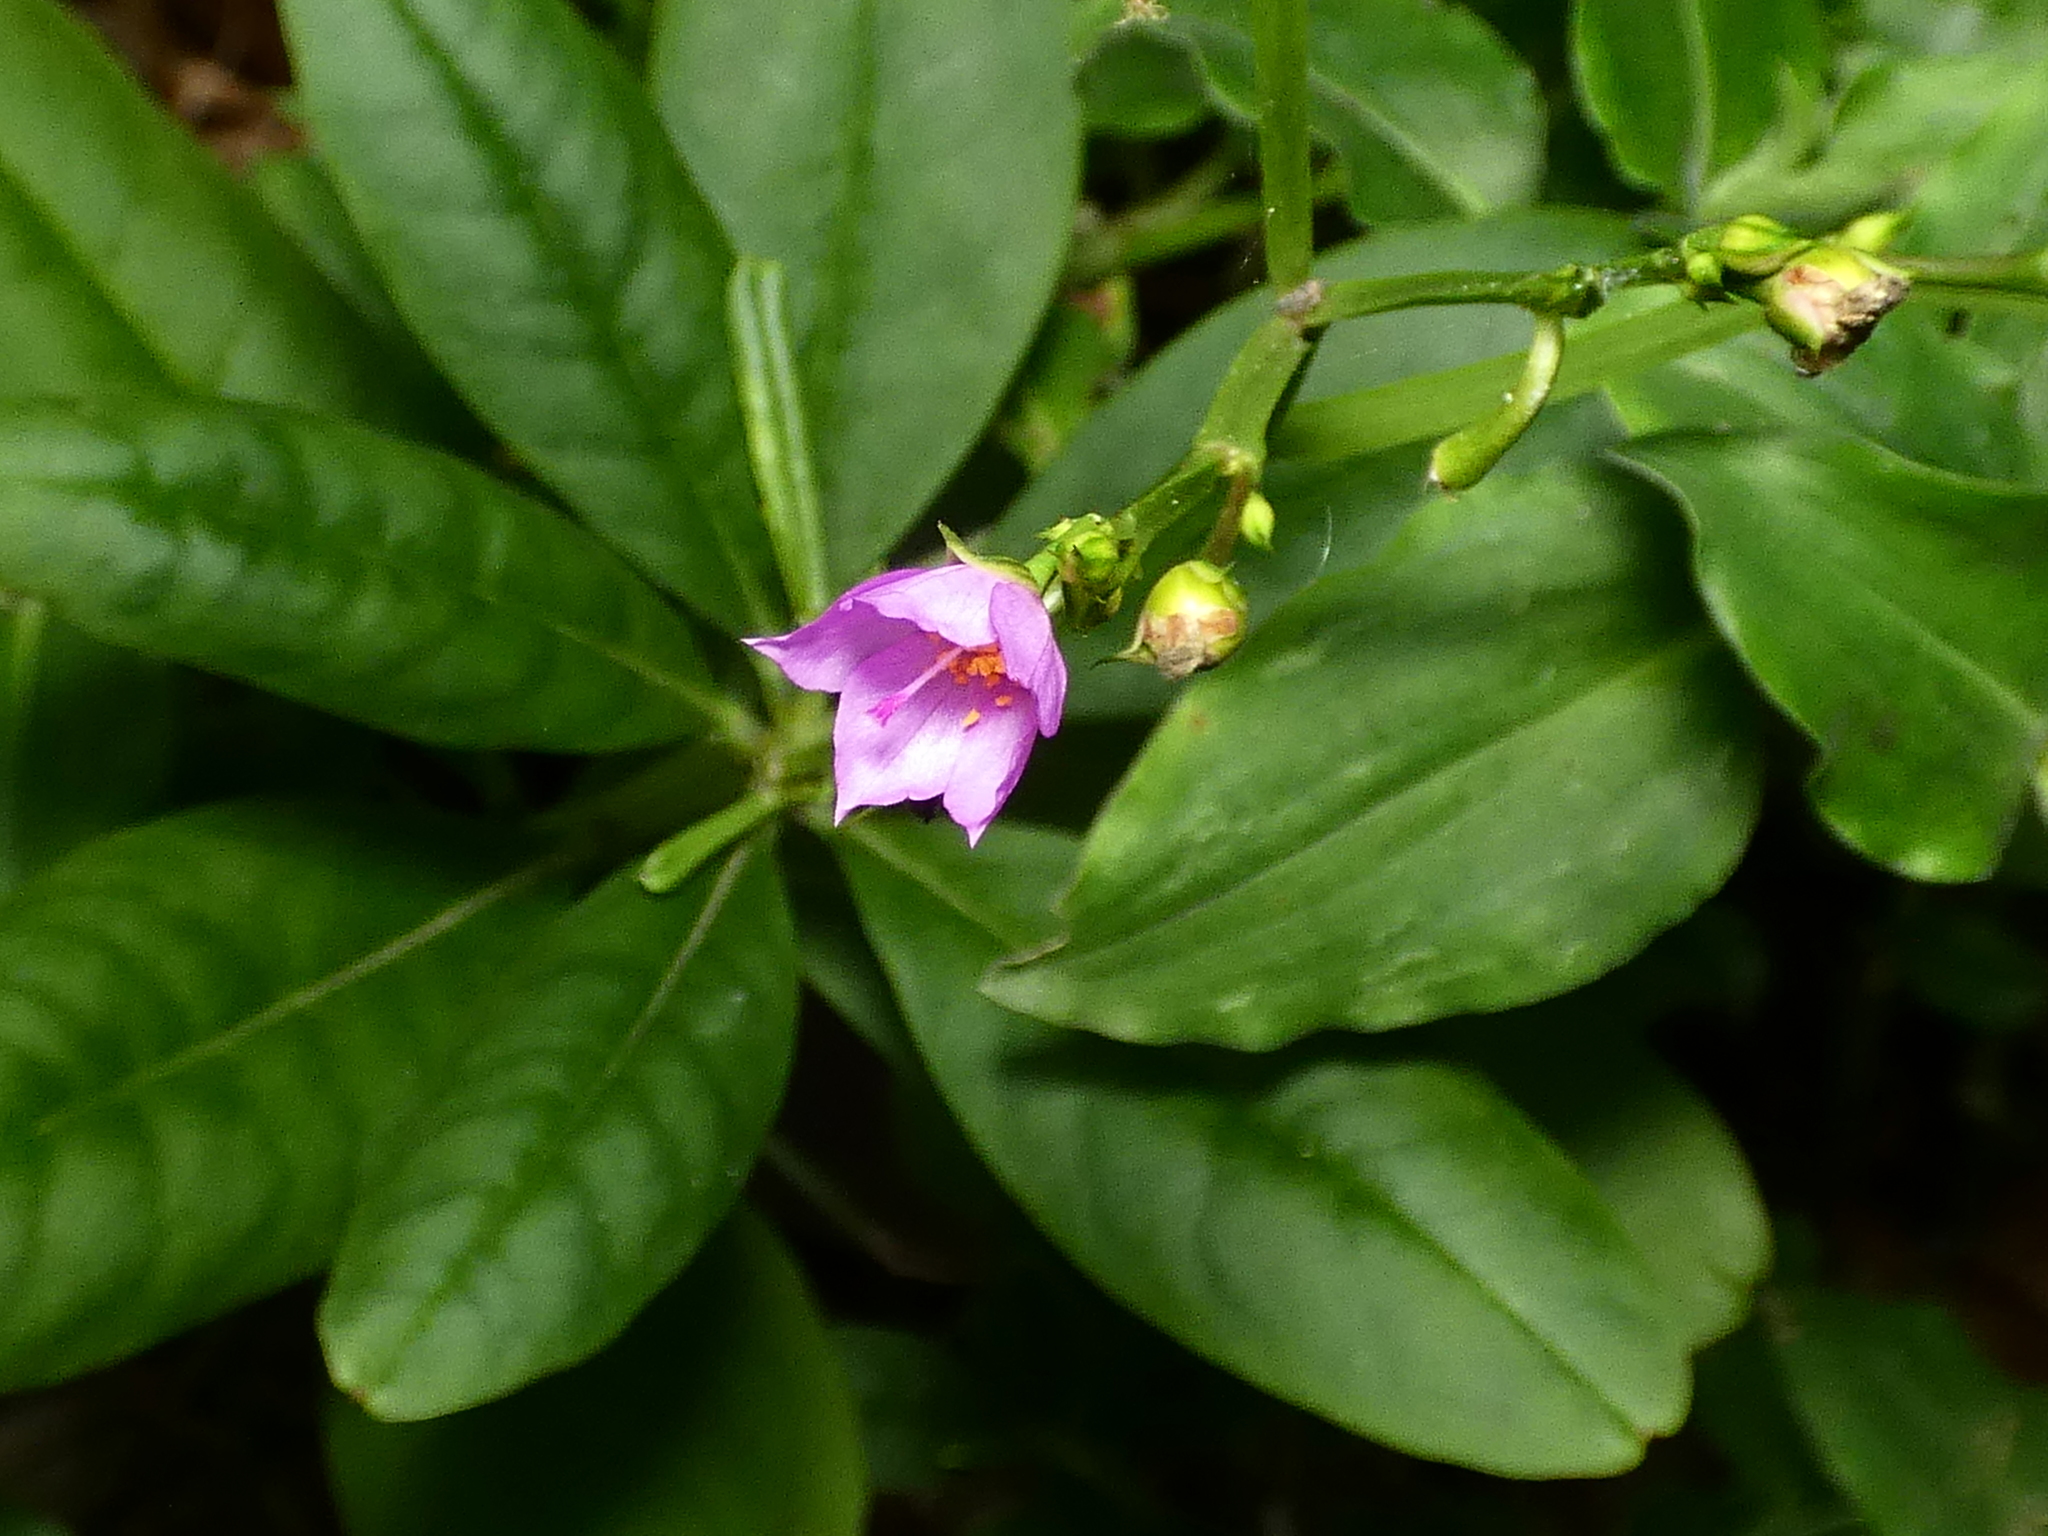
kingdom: Plantae
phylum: Tracheophyta
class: Magnoliopsida
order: Caryophyllales
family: Talinaceae
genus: Talinum
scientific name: Talinum fruticosum
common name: Verdolaga-francesa
